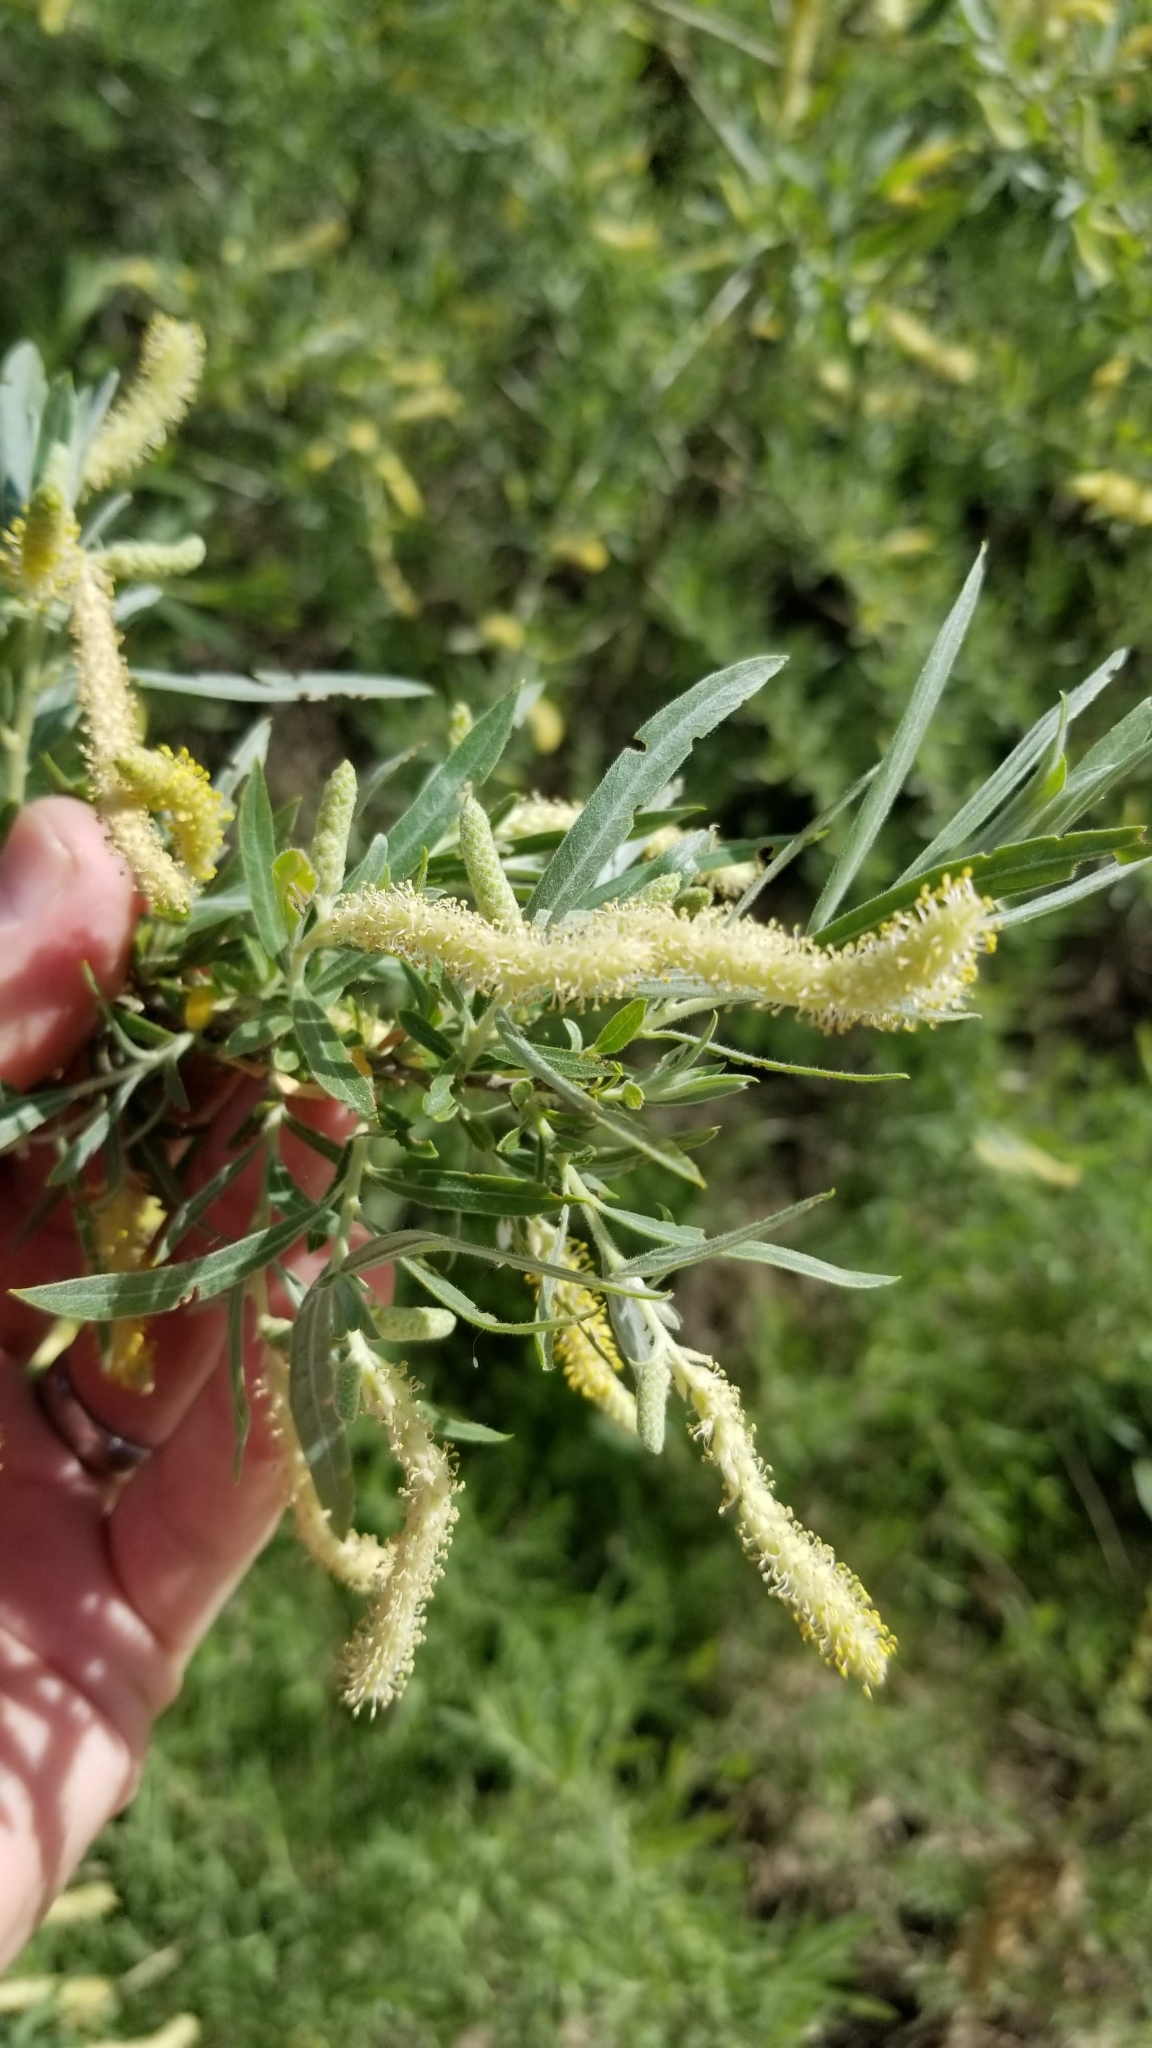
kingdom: Plantae
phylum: Tracheophyta
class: Magnoliopsida
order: Malpighiales
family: Salicaceae
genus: Salix
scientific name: Salix exigua
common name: Coyote willow
